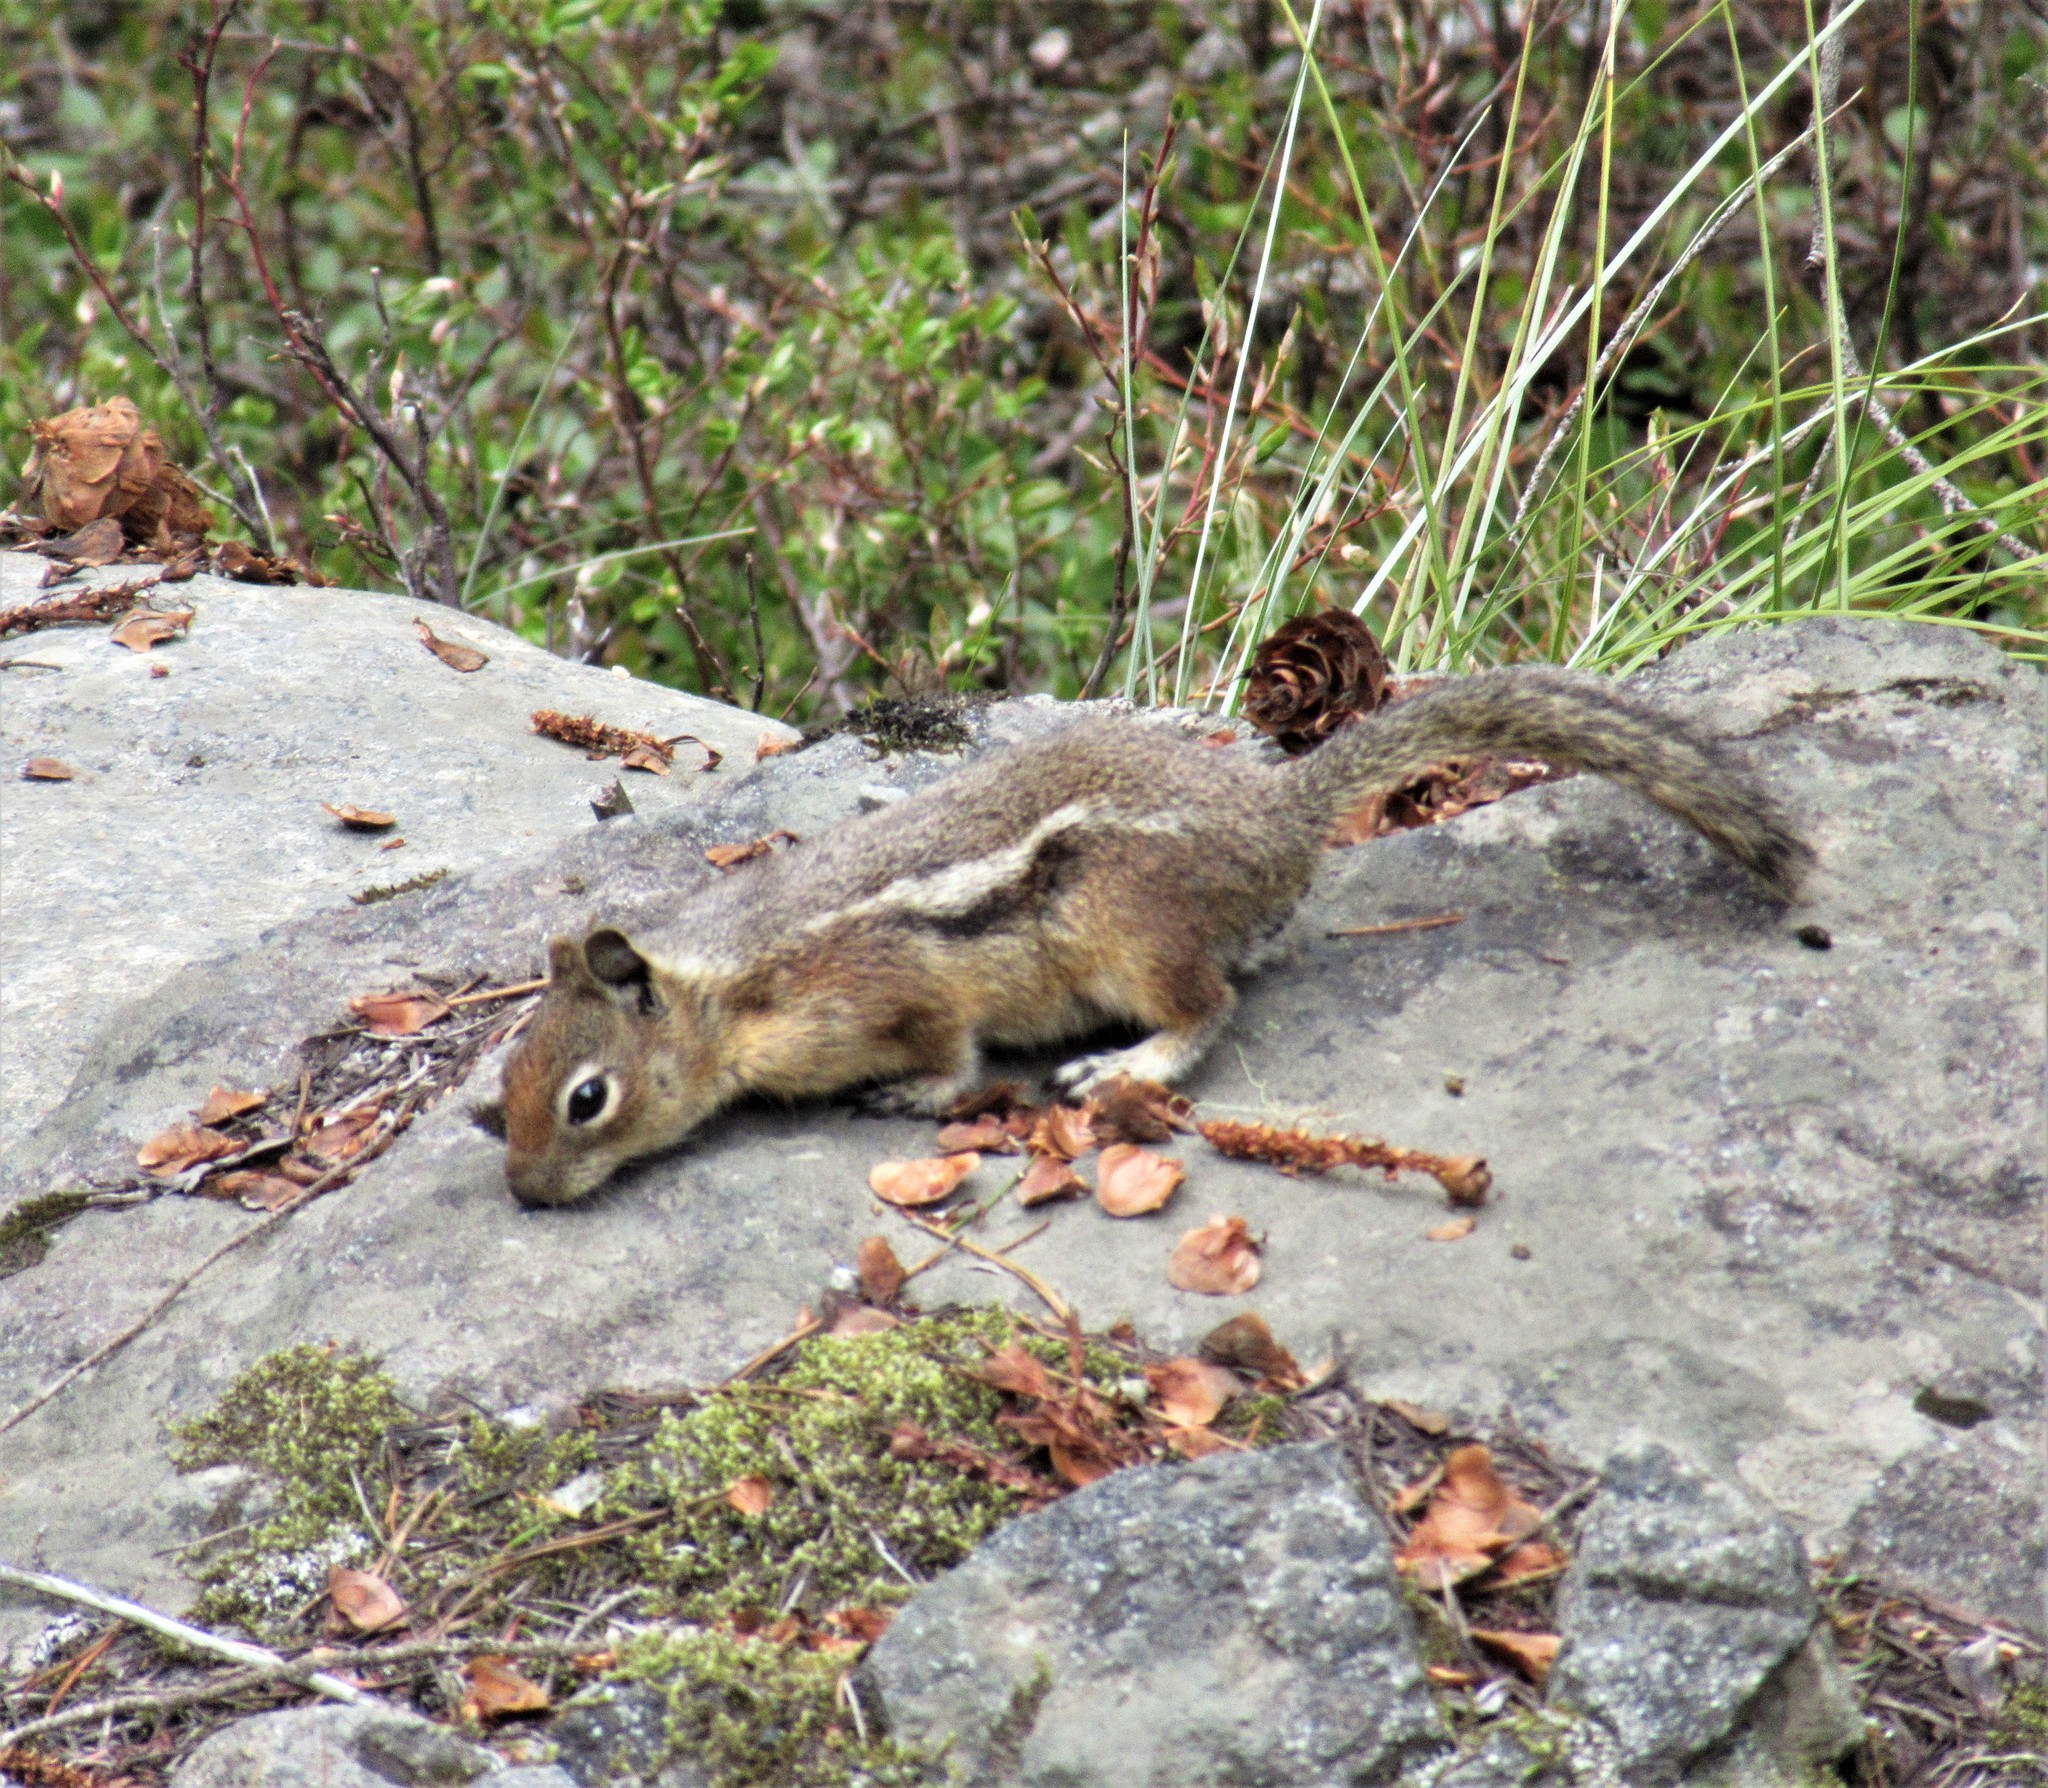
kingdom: Animalia
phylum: Chordata
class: Mammalia
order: Rodentia
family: Sciuridae
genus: Callospermophilus
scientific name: Callospermophilus saturatus
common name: Cascade golden-mantled ground squirrel
